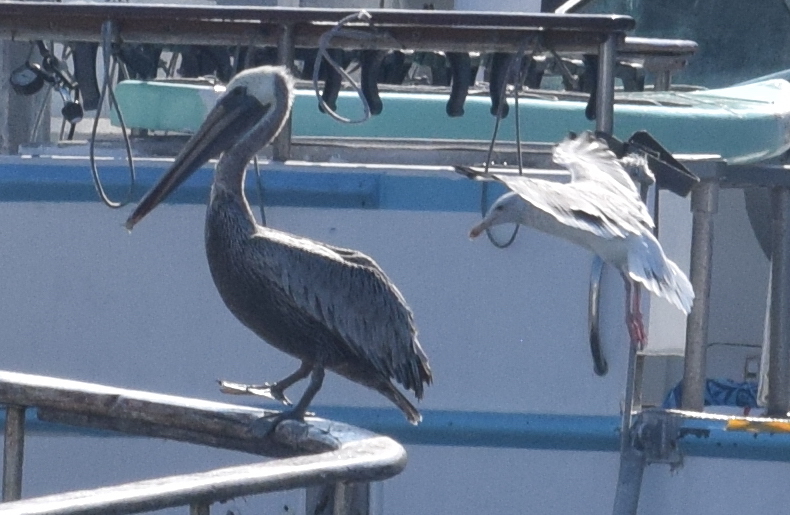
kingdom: Animalia
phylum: Chordata
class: Aves
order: Pelecaniformes
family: Pelecanidae
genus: Pelecanus
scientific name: Pelecanus occidentalis
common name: Brown pelican
